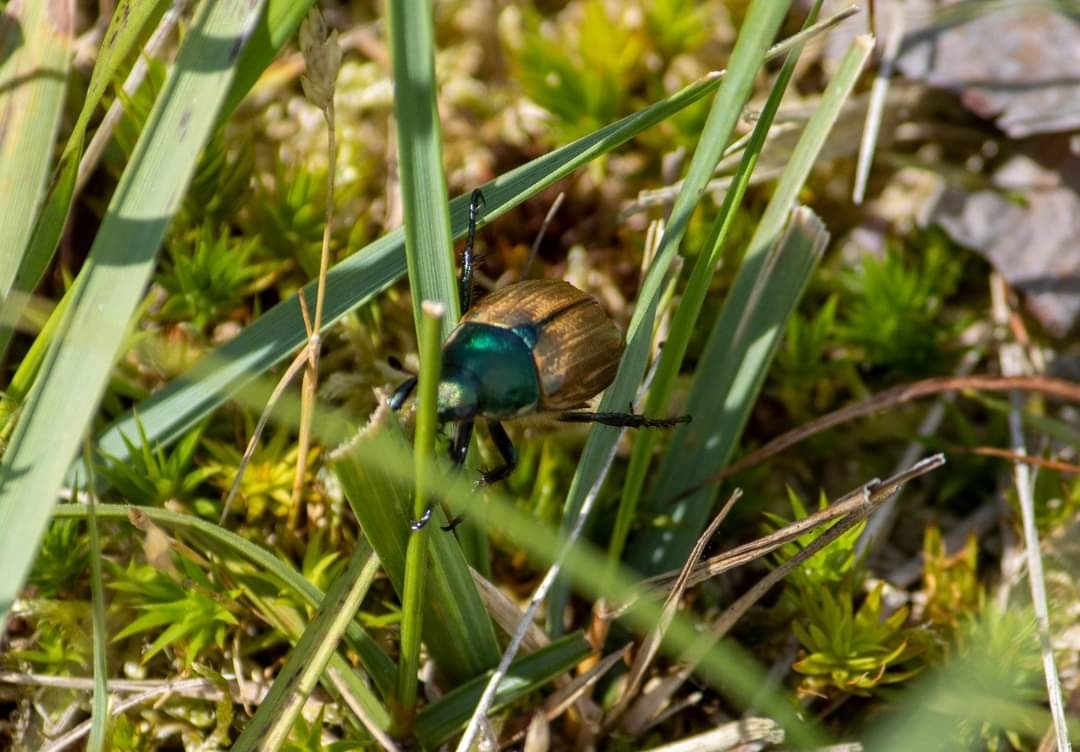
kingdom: Animalia
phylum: Arthropoda
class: Insecta
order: Coleoptera
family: Scarabaeidae
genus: Anomala
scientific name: Anomala dubia
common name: Dune chafer
